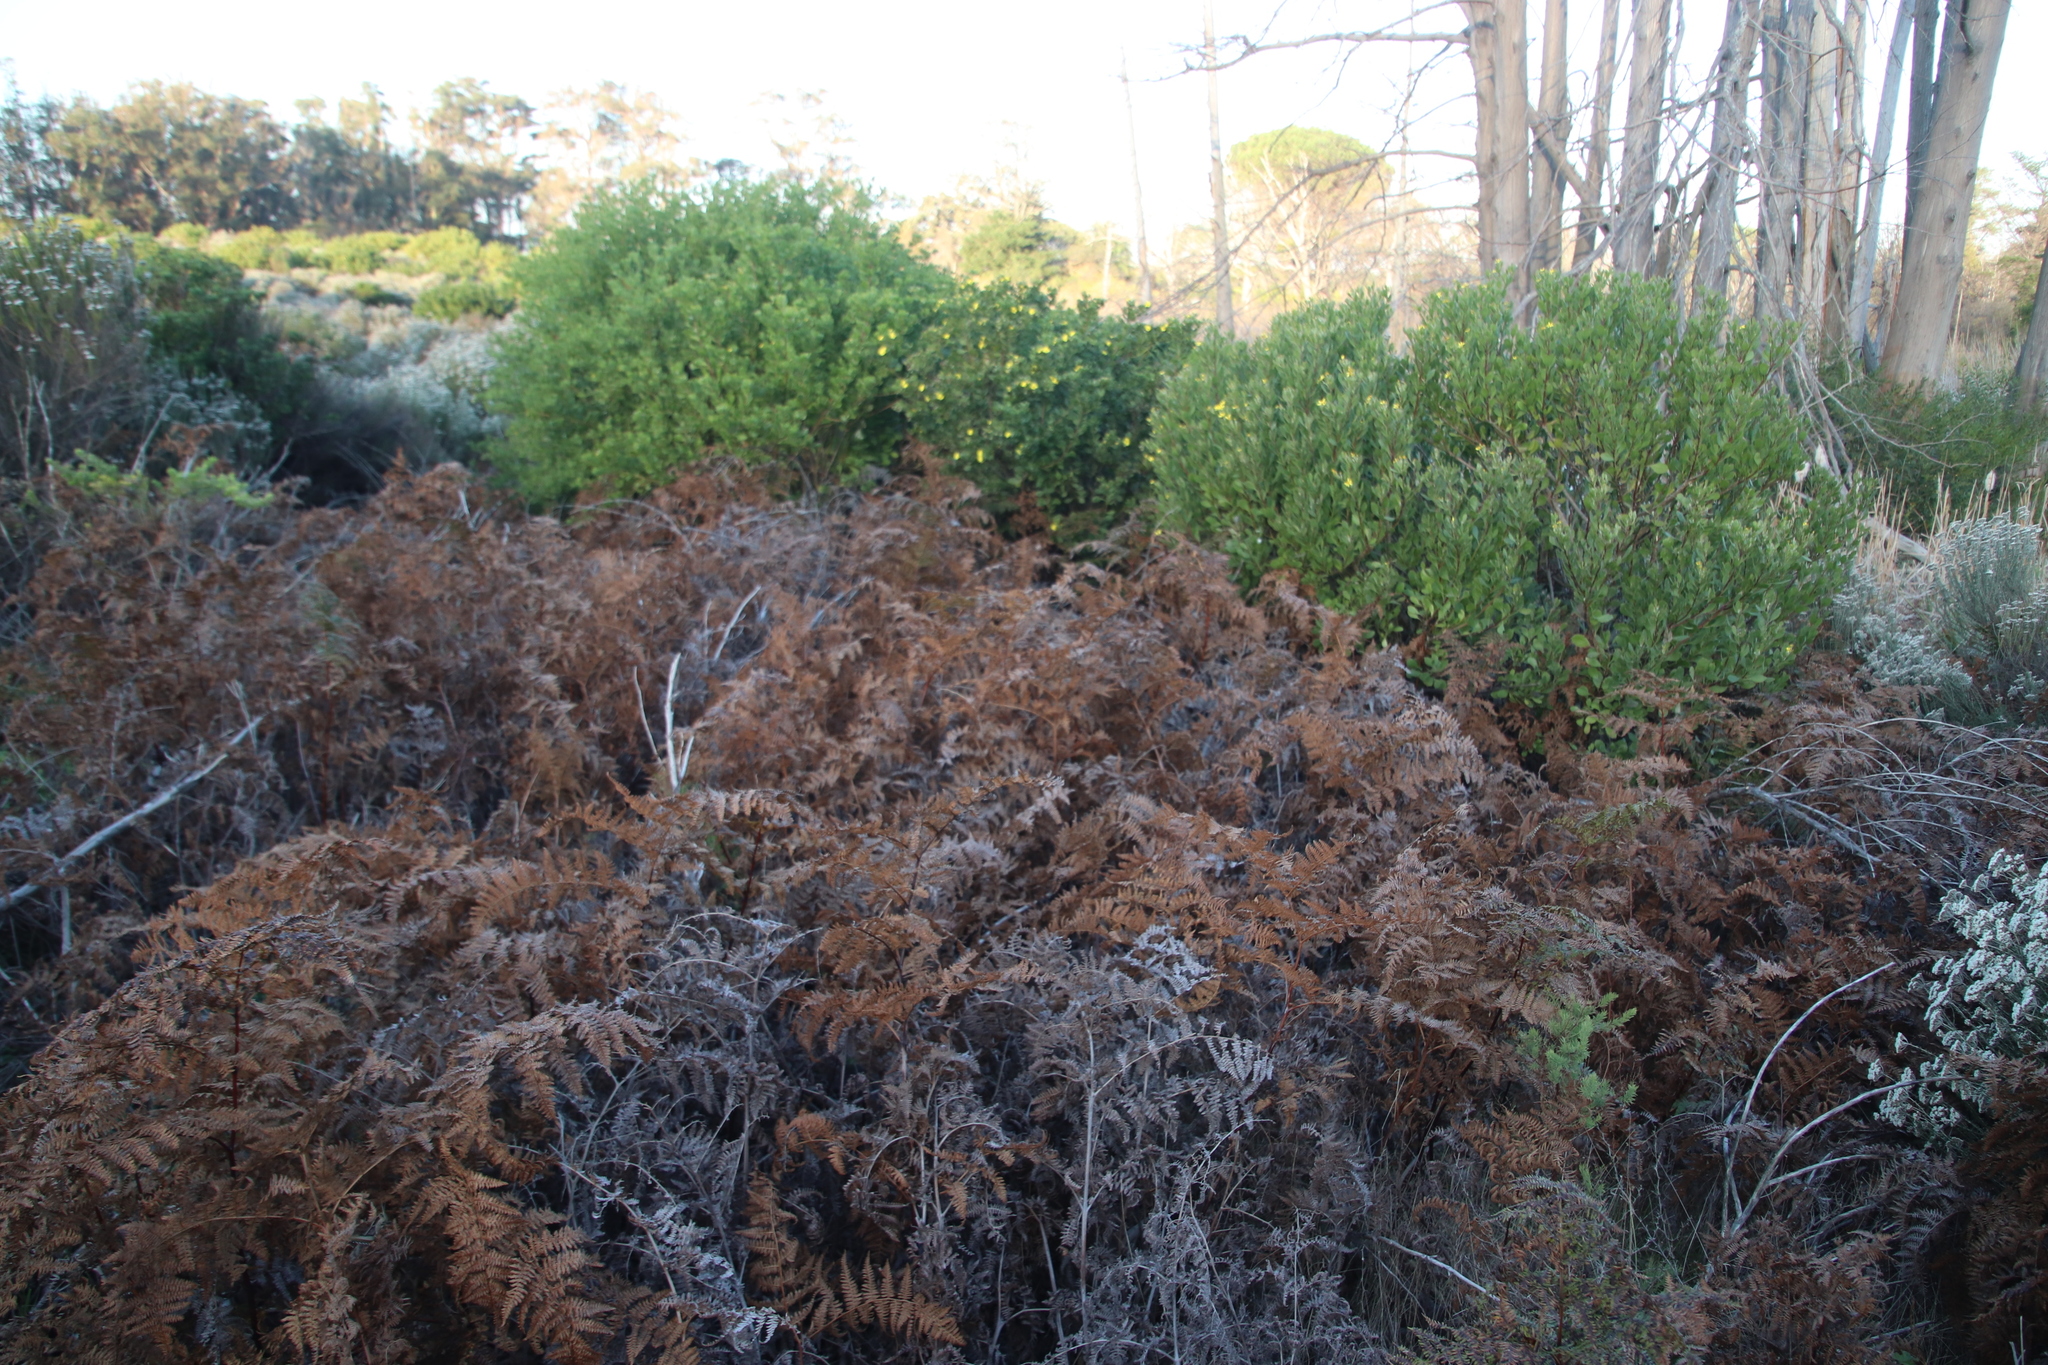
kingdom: Plantae
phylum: Tracheophyta
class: Polypodiopsida
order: Polypodiales
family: Dennstaedtiaceae
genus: Pteridium
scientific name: Pteridium aquilinum
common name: Bracken
